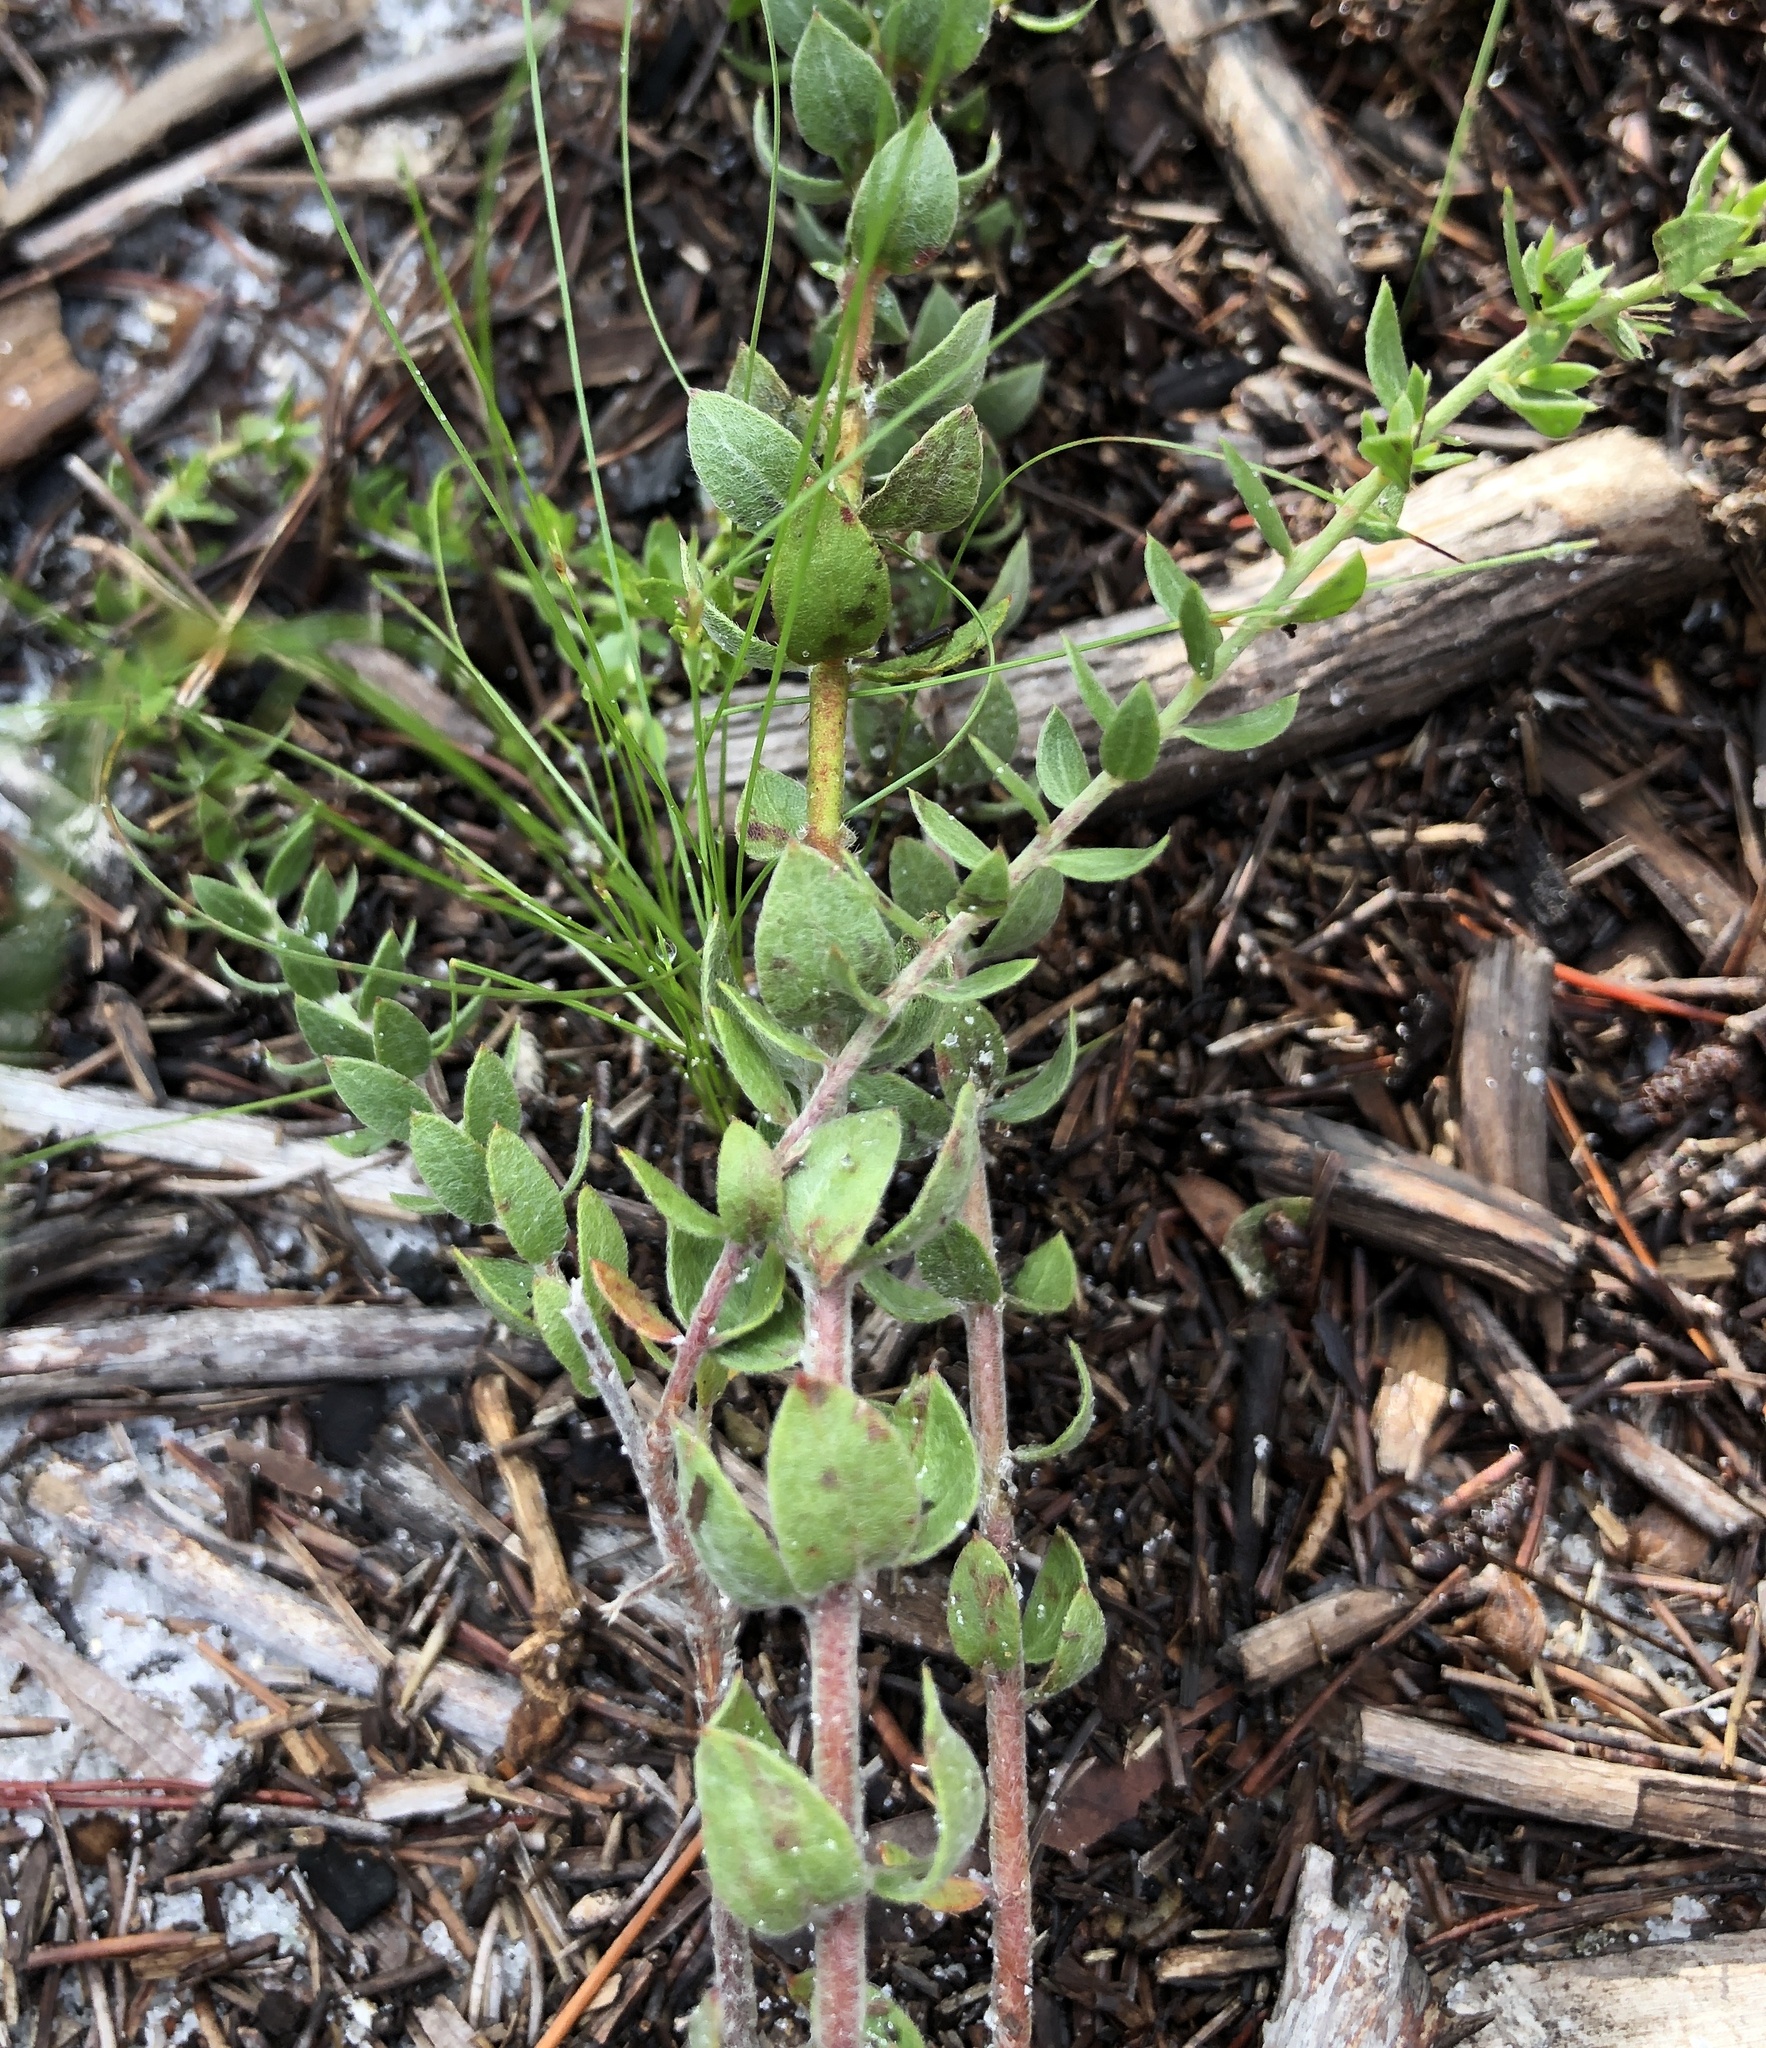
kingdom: Plantae
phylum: Tracheophyta
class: Magnoliopsida
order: Malvales
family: Cistaceae
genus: Lechea
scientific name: Lechea cernua
